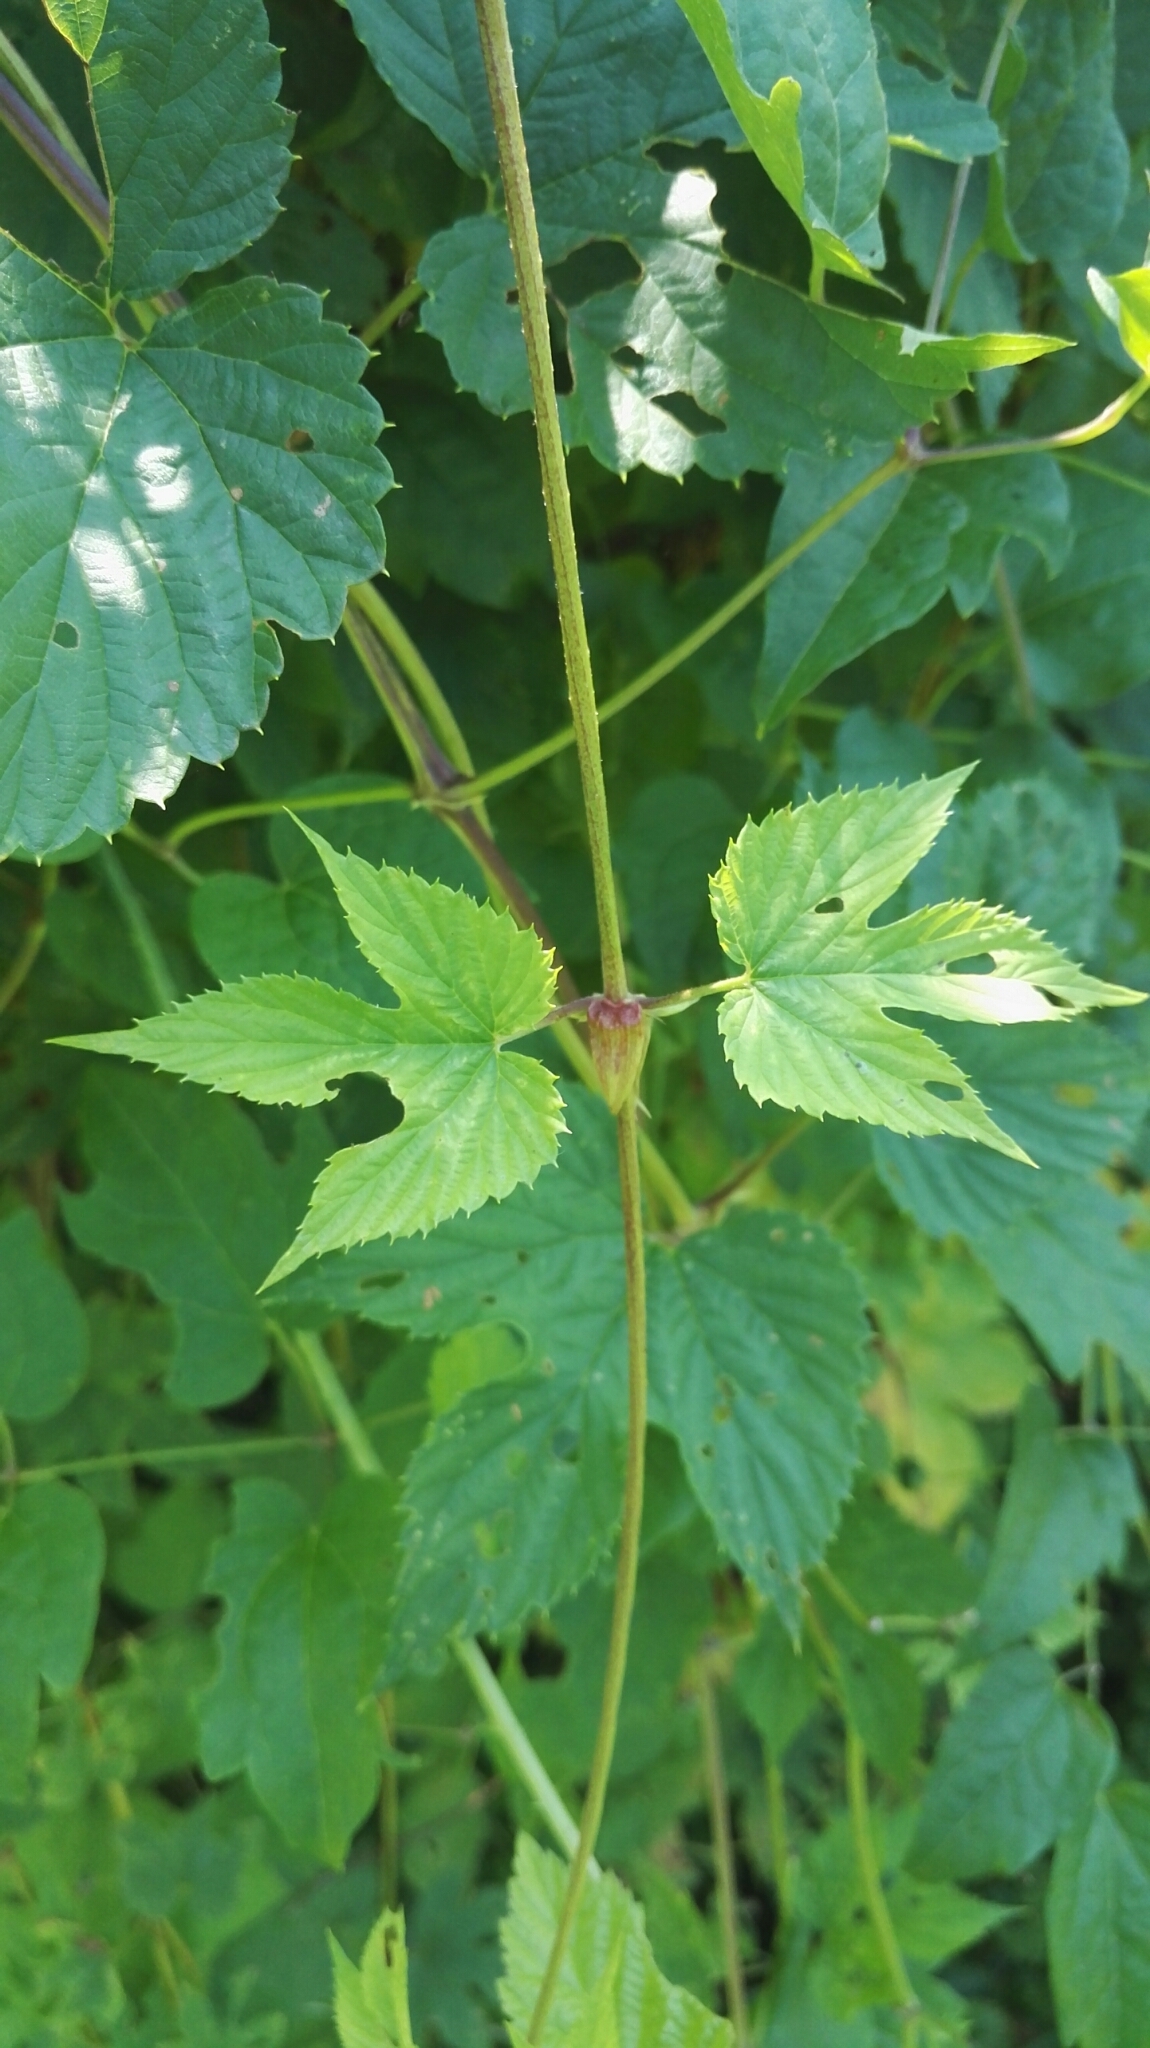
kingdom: Plantae
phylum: Tracheophyta
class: Magnoliopsida
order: Rosales
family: Cannabaceae
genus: Humulus
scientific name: Humulus lupulus
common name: Hop
